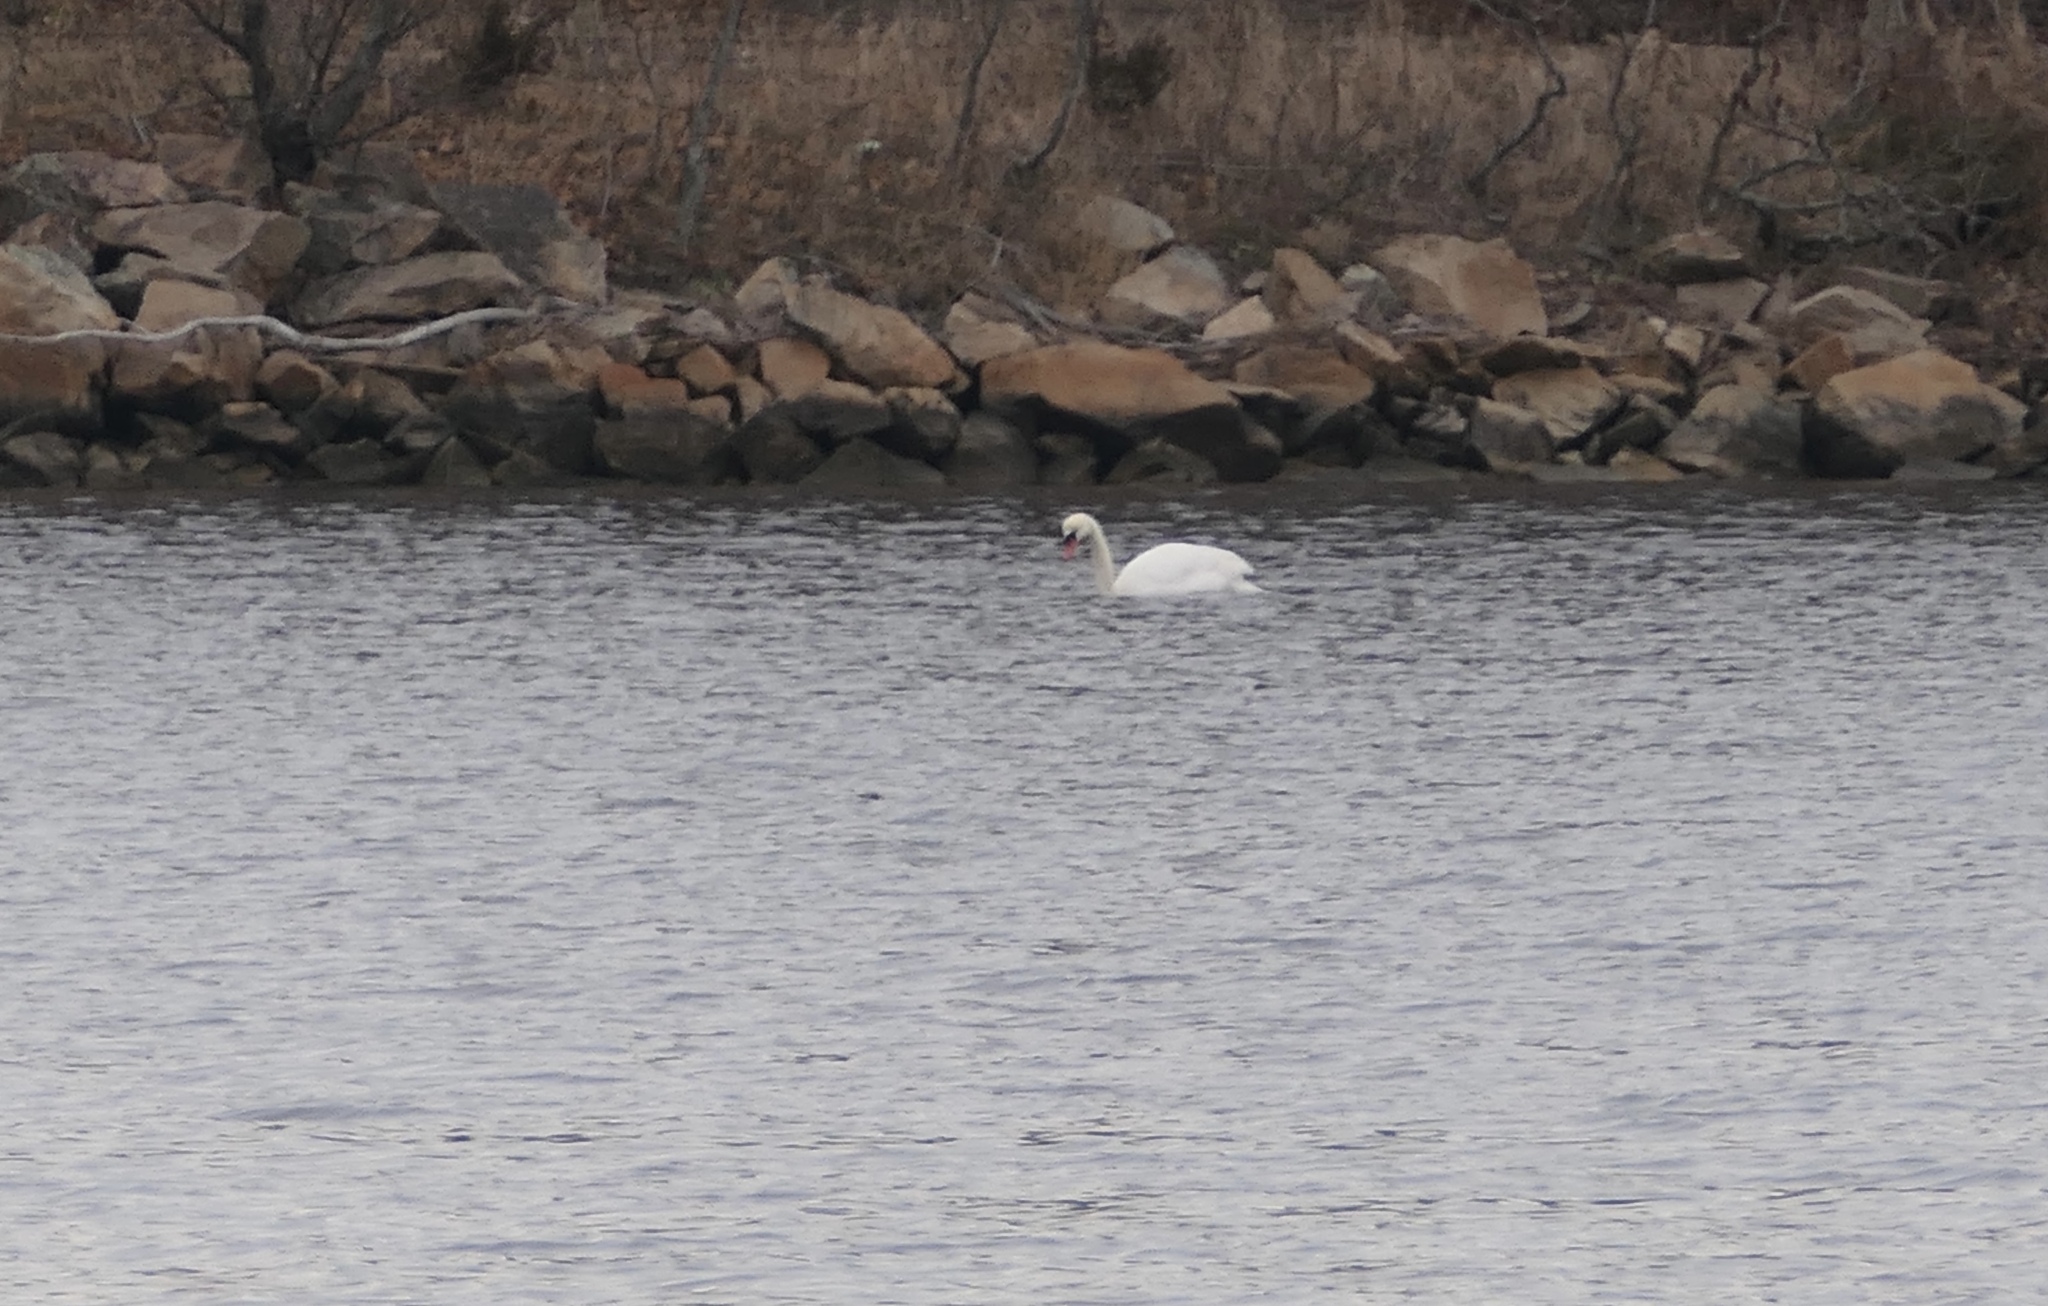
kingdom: Animalia
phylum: Chordata
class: Aves
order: Anseriformes
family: Anatidae
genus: Cygnus
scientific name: Cygnus olor
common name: Mute swan
